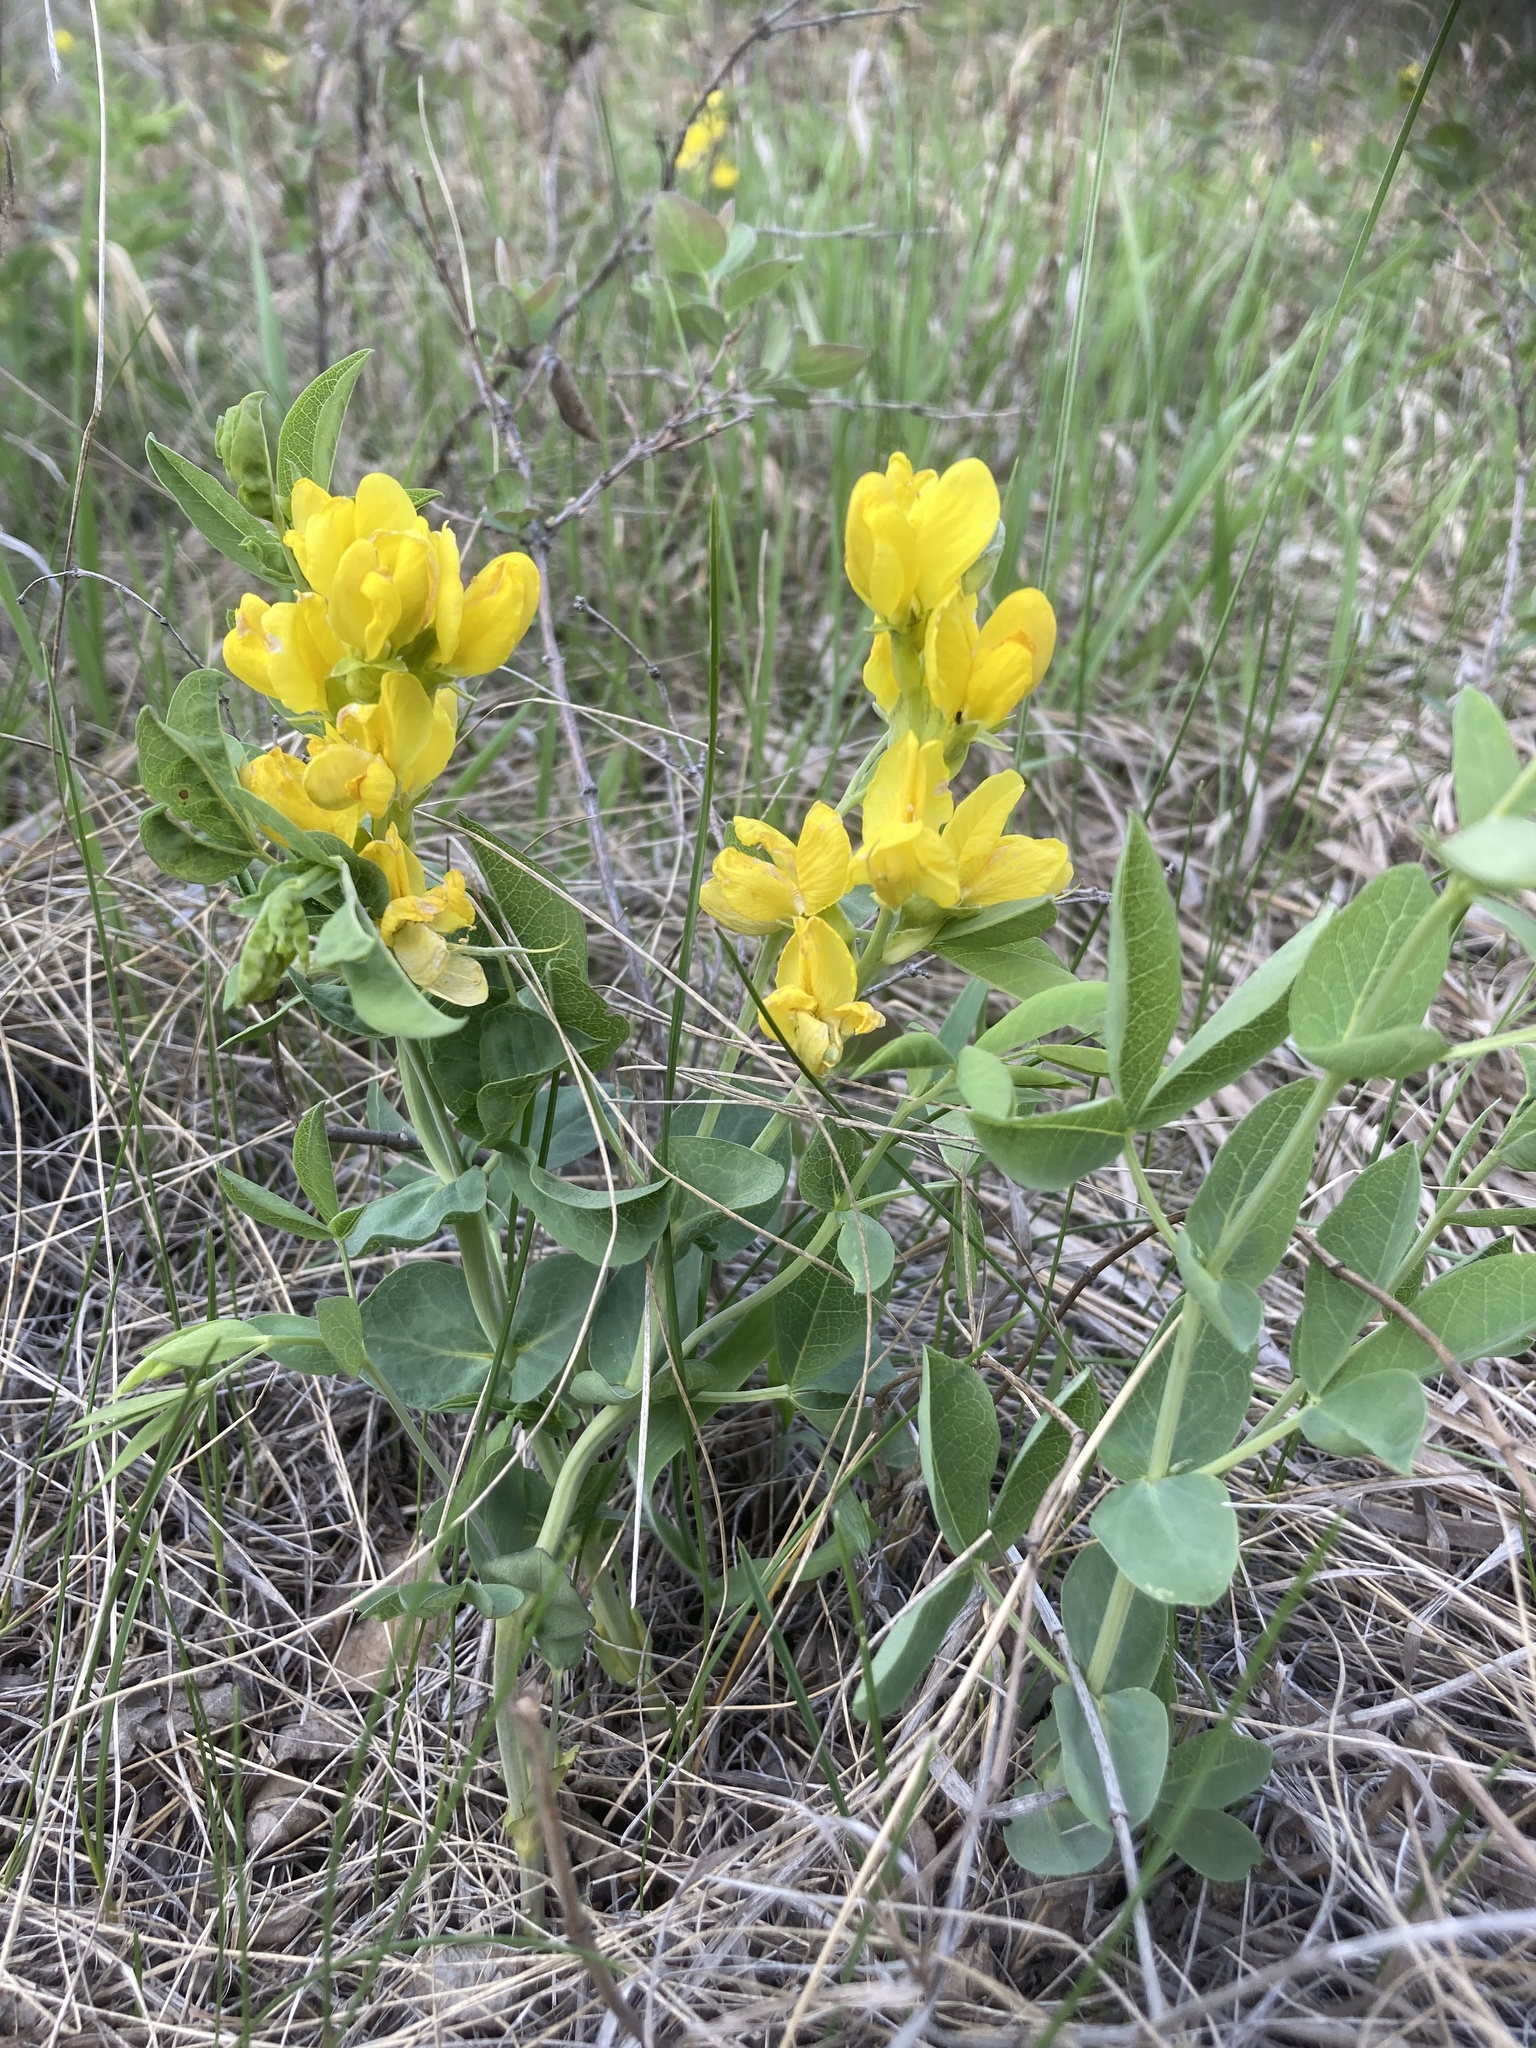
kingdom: Plantae
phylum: Tracheophyta
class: Magnoliopsida
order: Fabales
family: Fabaceae
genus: Thermopsis
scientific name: Thermopsis rhombifolia
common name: Circle-pod-pea
